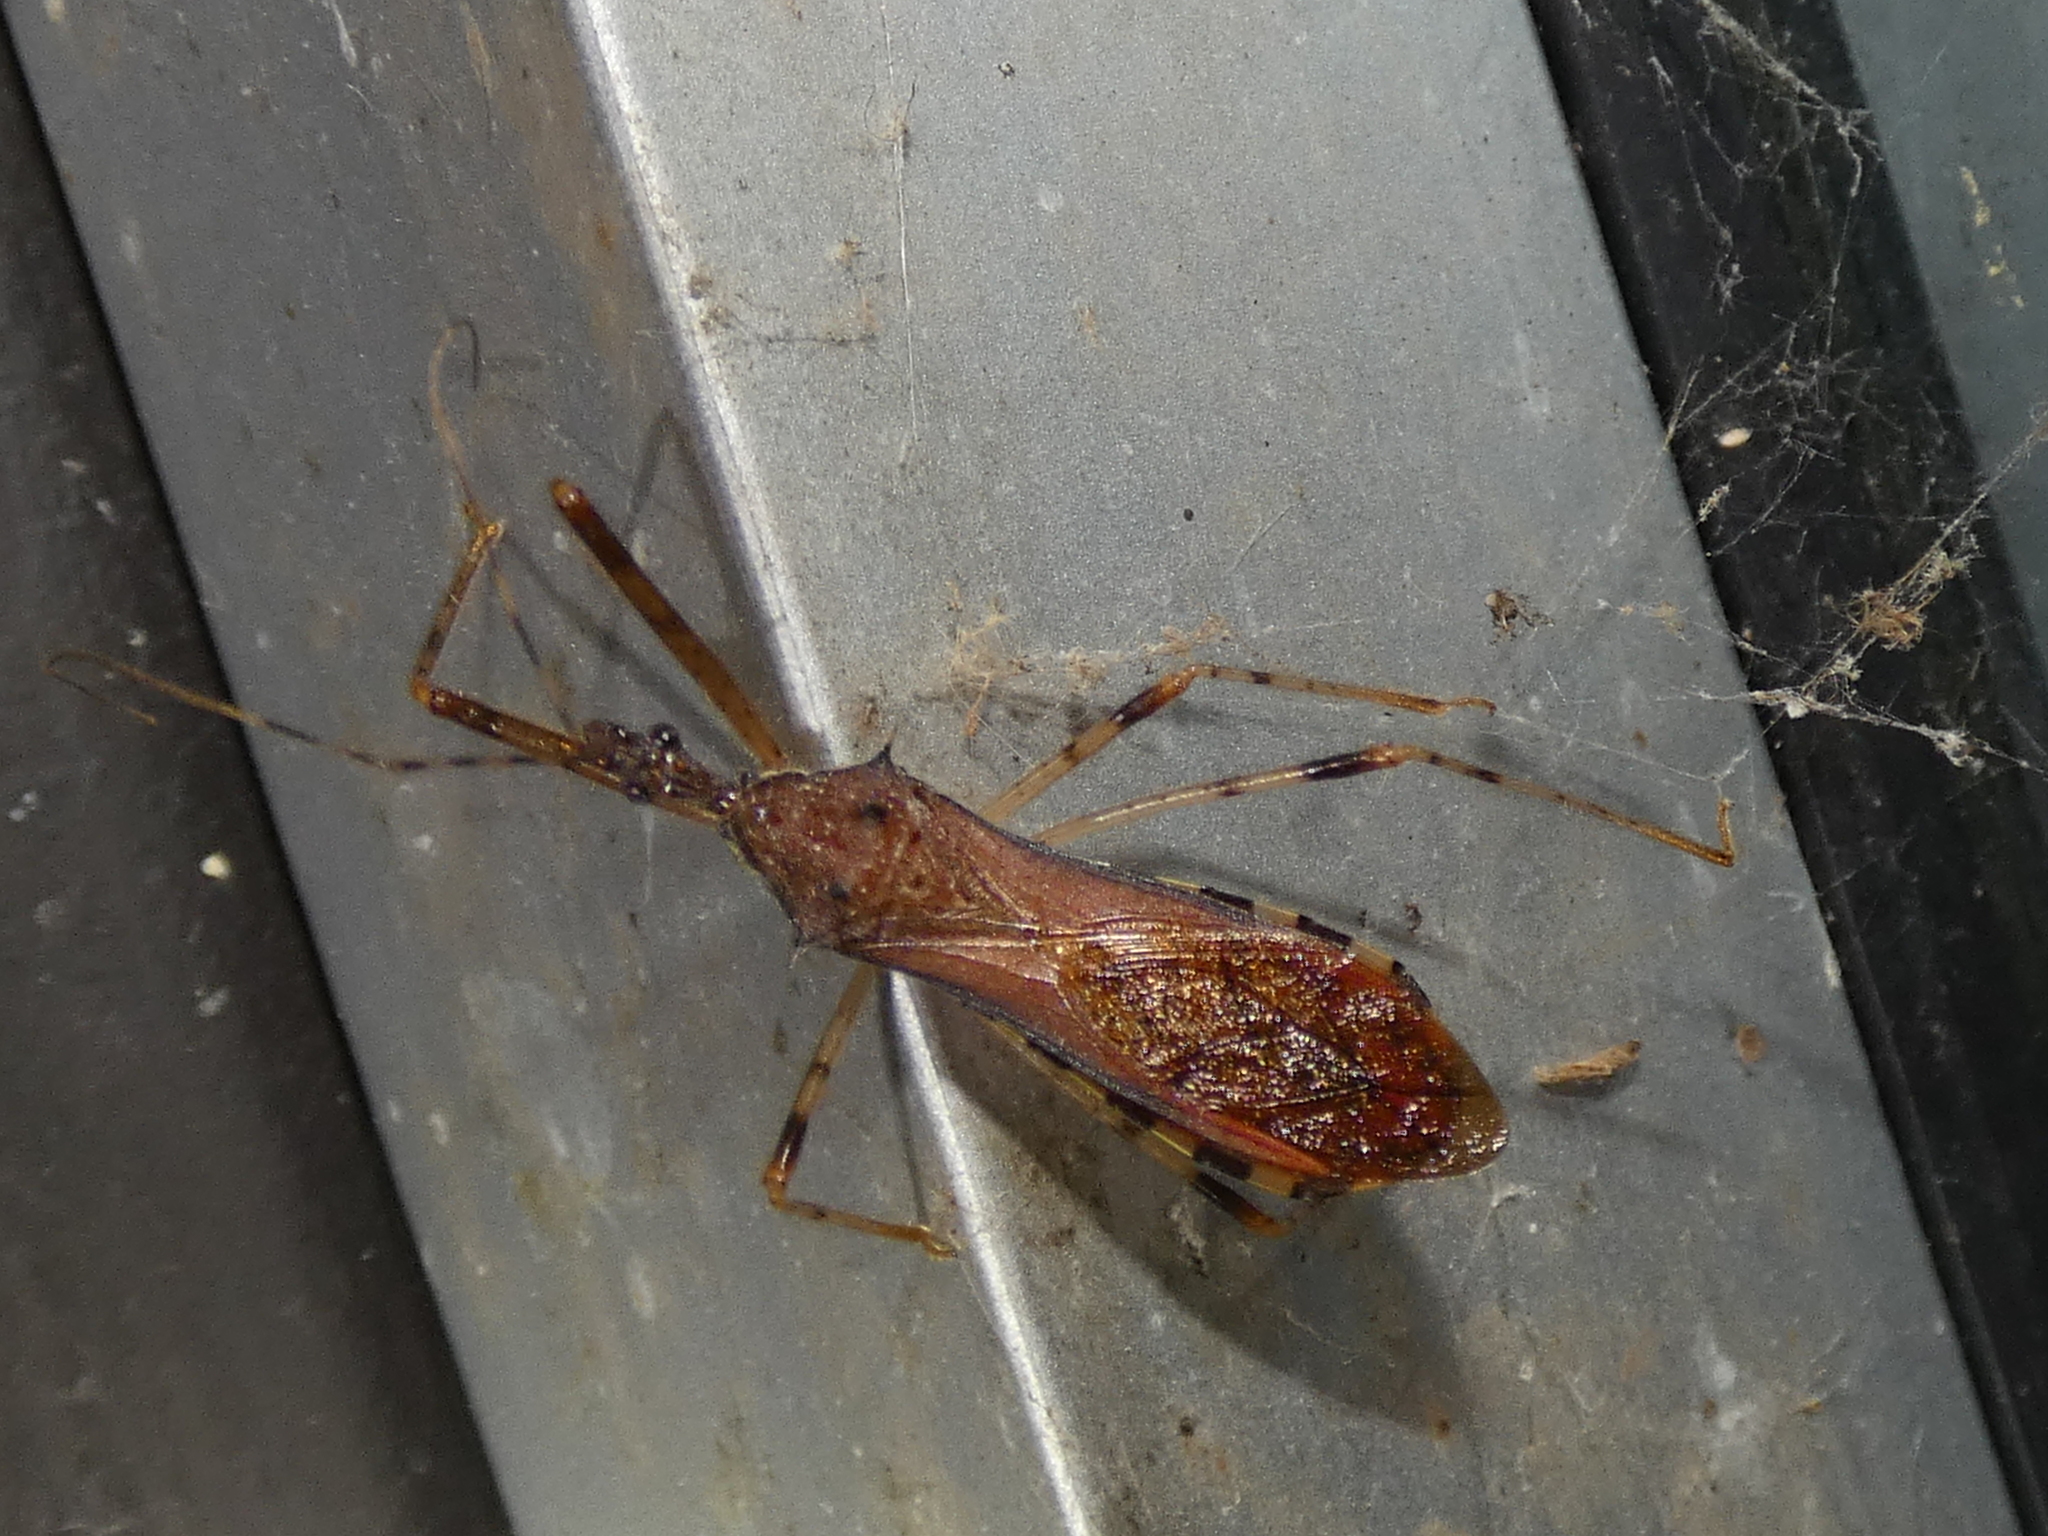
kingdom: Animalia
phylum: Arthropoda
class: Insecta
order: Hemiptera
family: Reduviidae
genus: Rocconota
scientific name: Rocconota annulicornis
